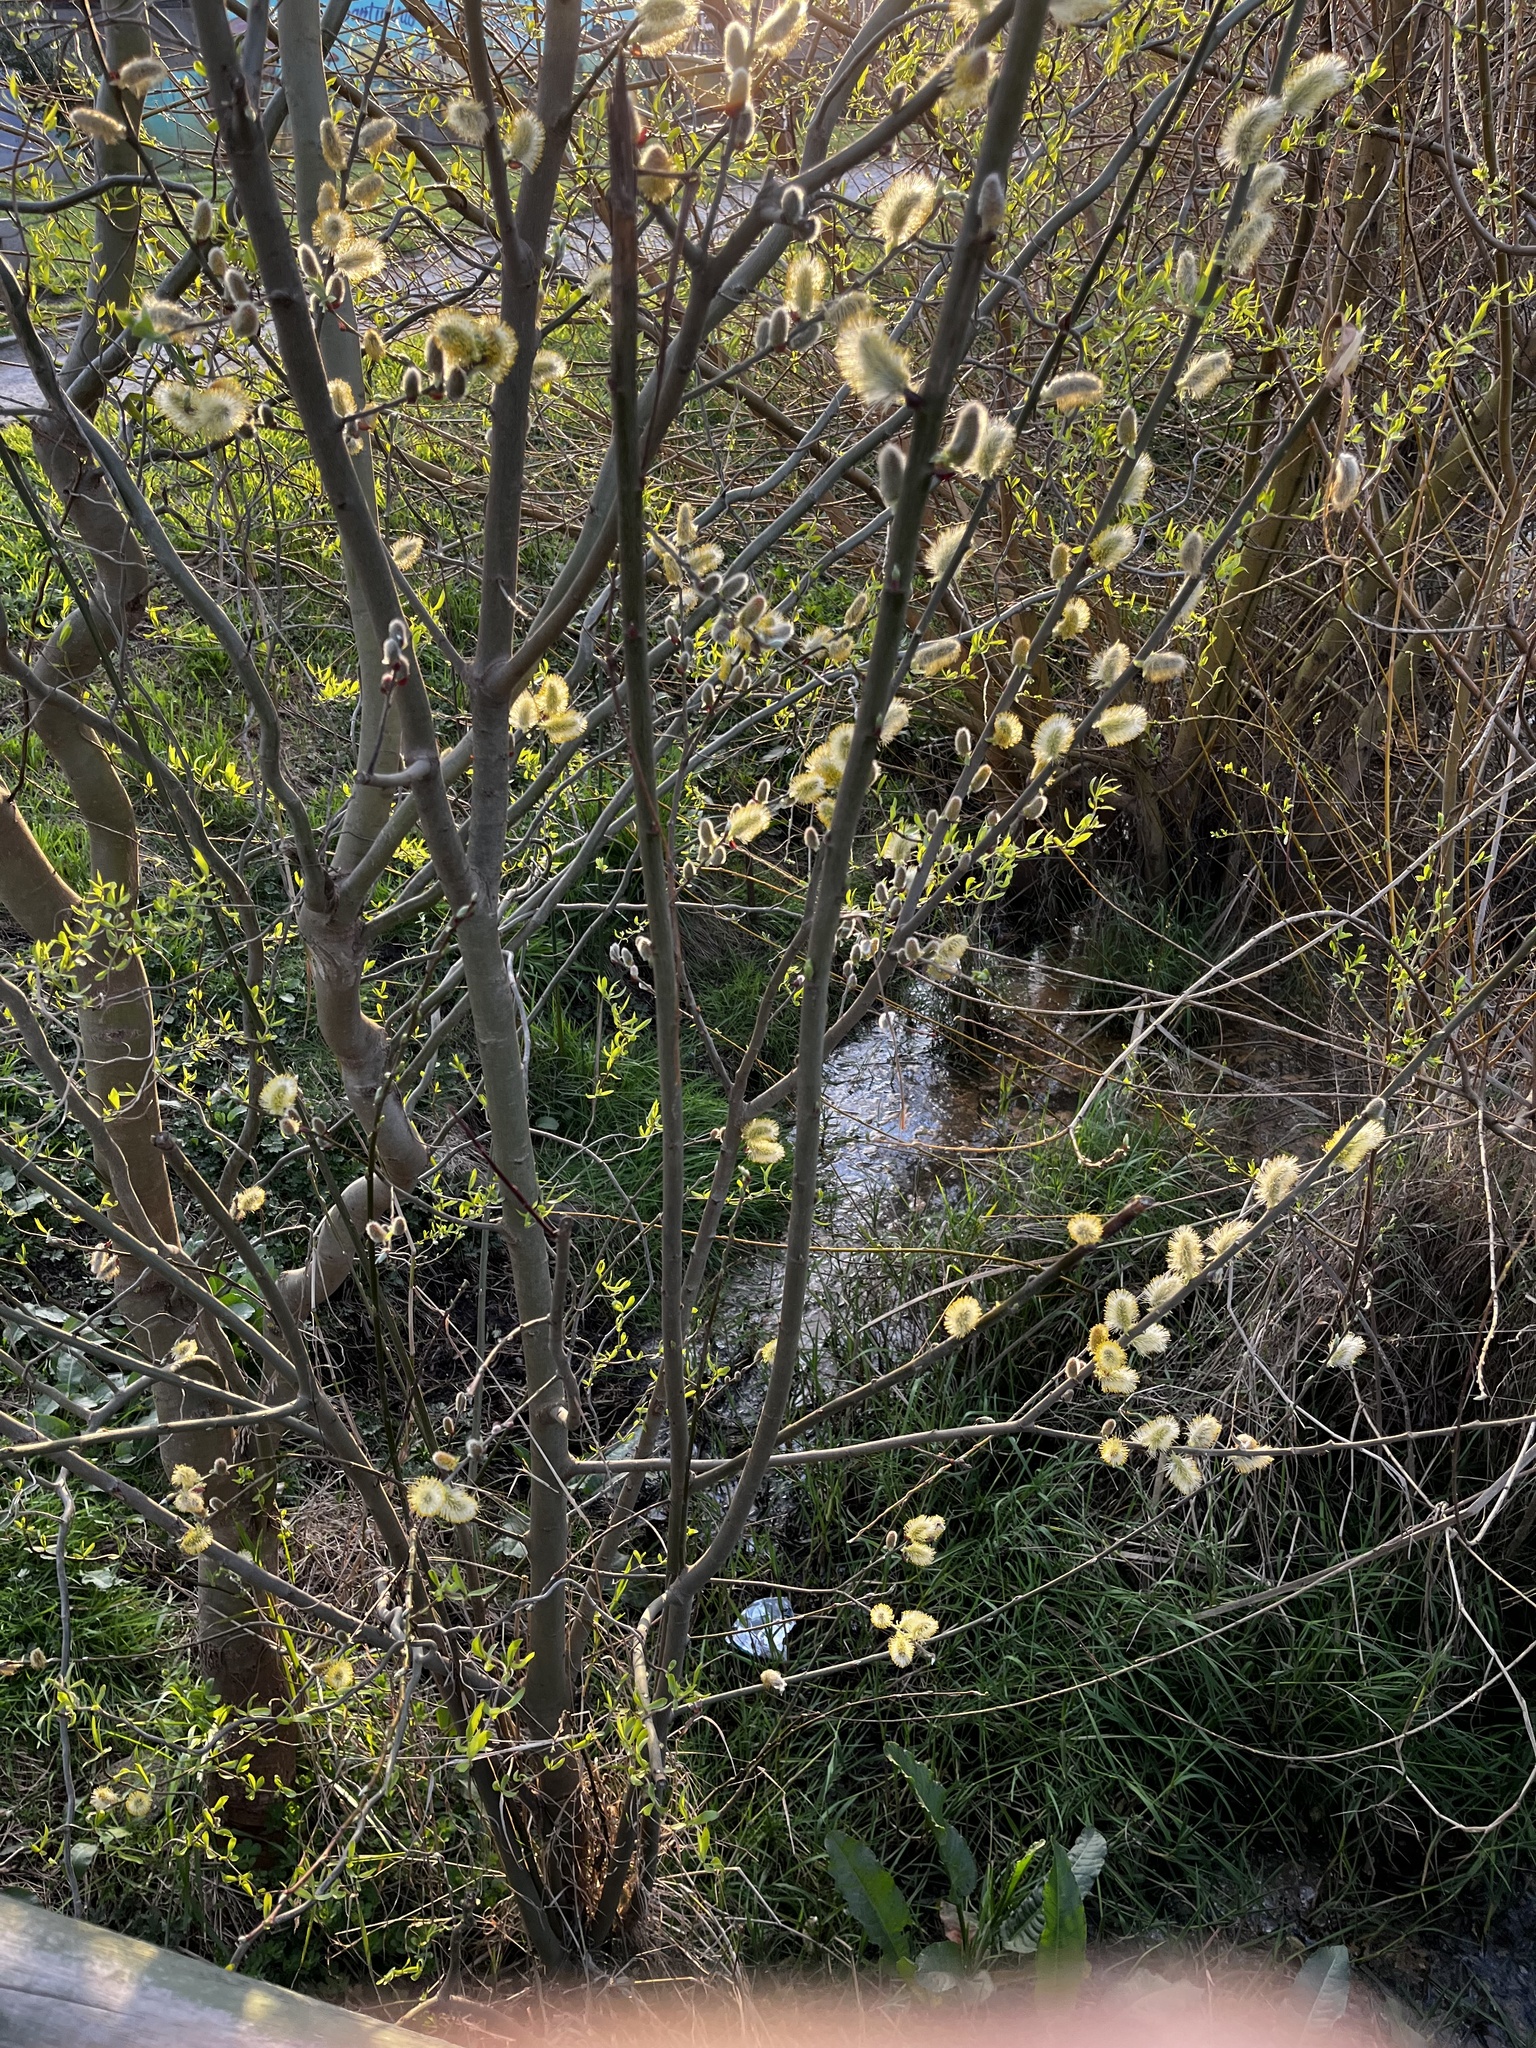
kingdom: Plantae
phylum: Tracheophyta
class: Magnoliopsida
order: Malpighiales
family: Salicaceae
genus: Salix
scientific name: Salix caprea
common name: Goat willow
